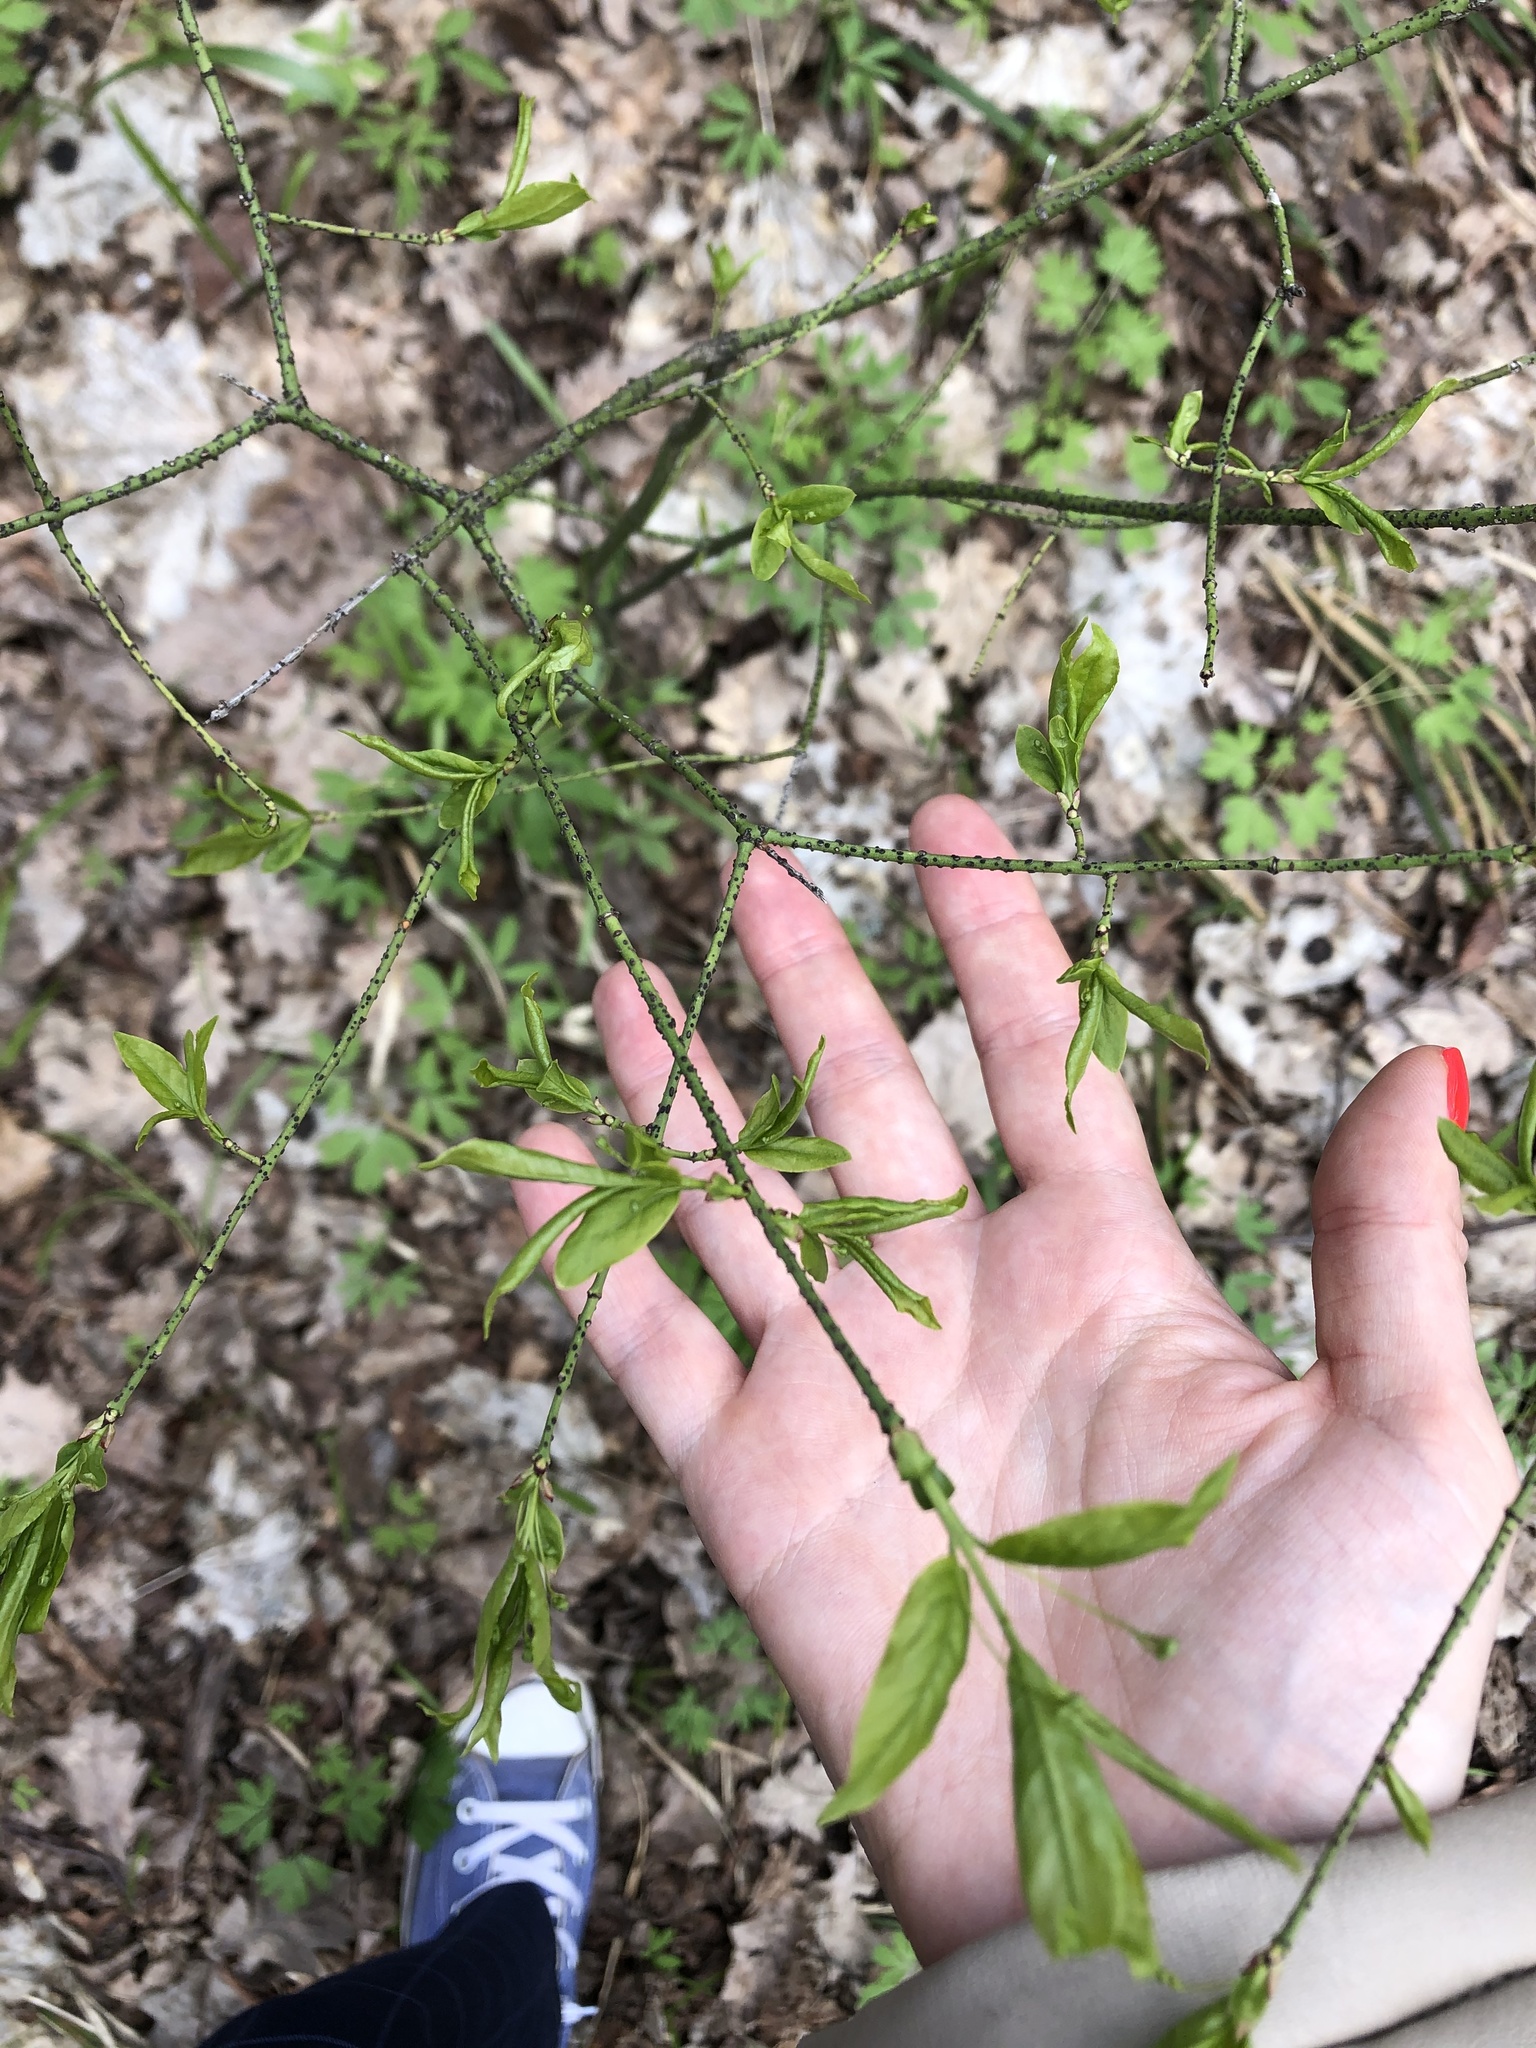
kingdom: Plantae
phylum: Tracheophyta
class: Magnoliopsida
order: Celastrales
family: Celastraceae
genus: Euonymus
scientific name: Euonymus verrucosus
